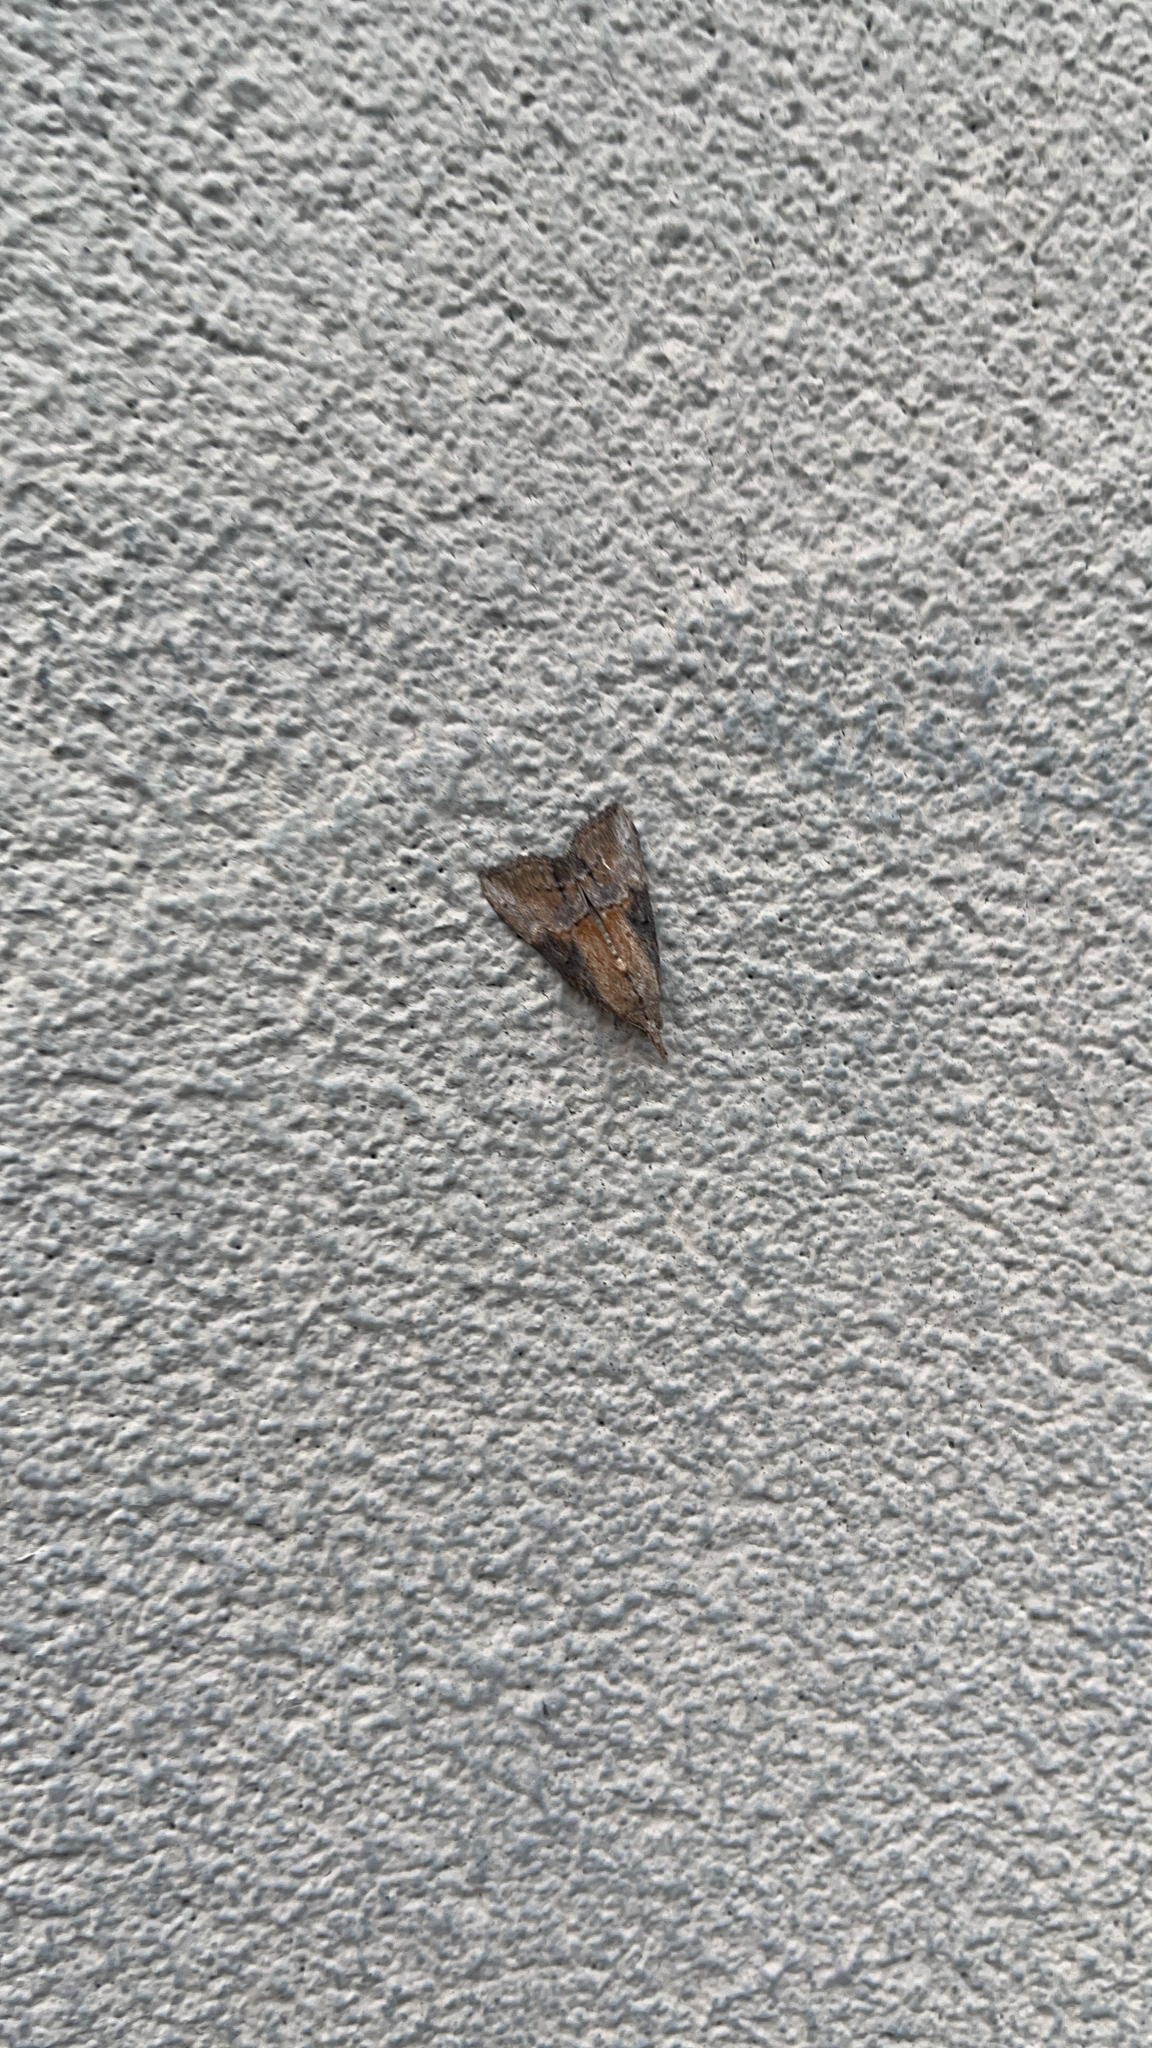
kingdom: Animalia
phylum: Arthropoda
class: Insecta
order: Lepidoptera
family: Erebidae
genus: Hypena
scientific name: Hypena scabra
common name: Green cloverworm
